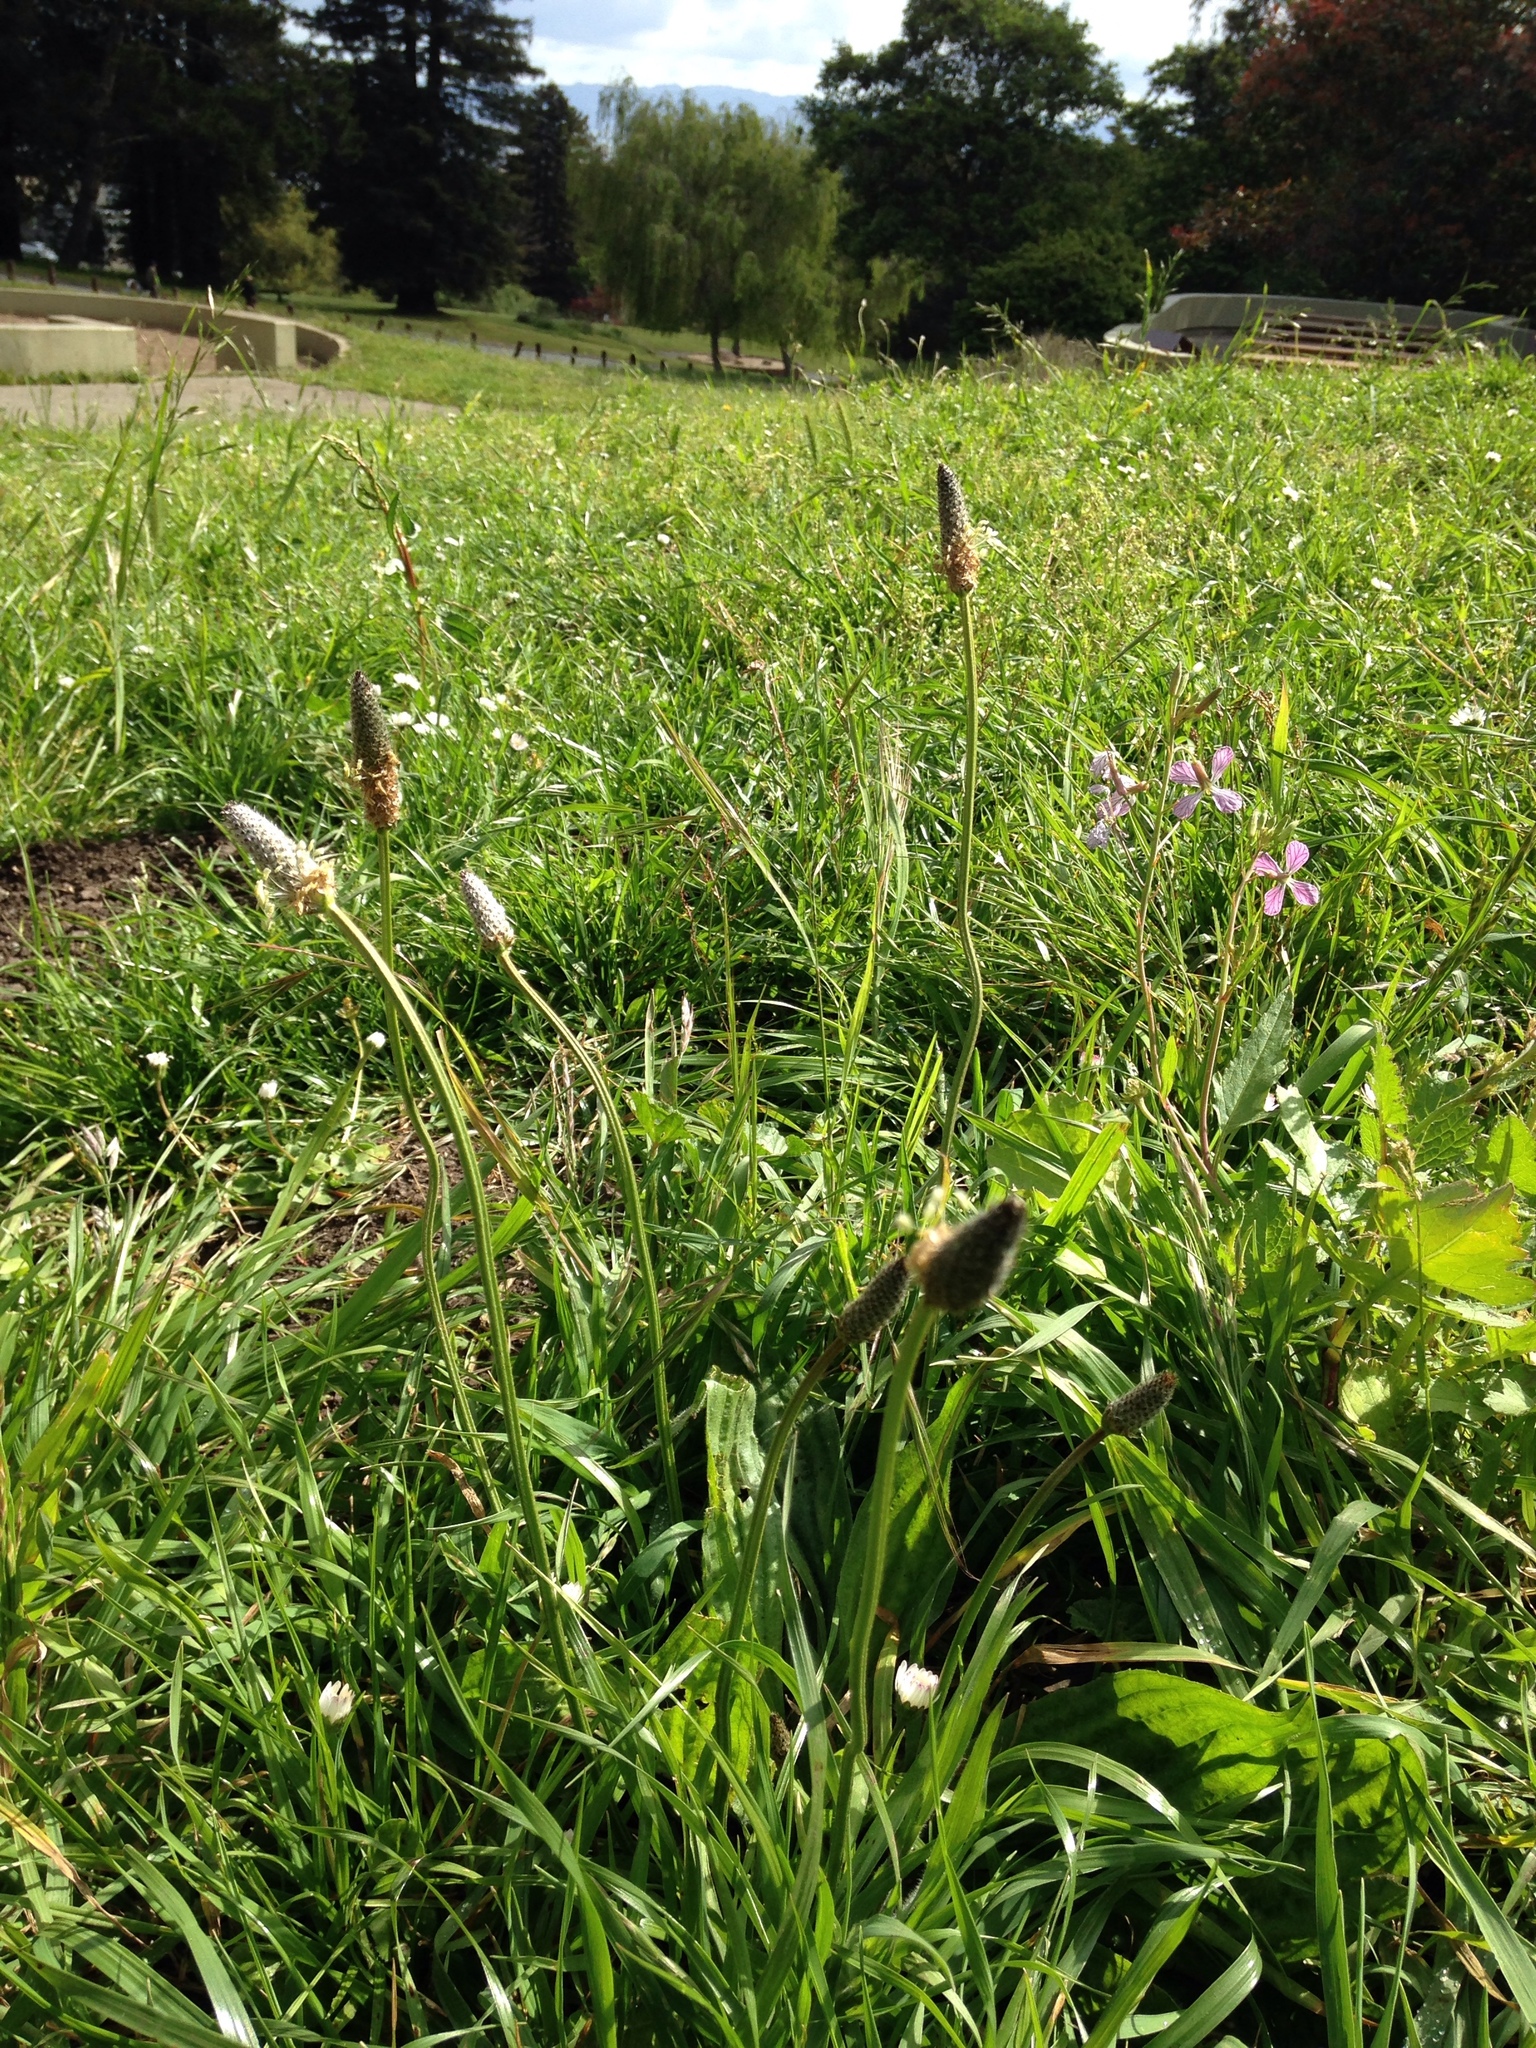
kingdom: Plantae
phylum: Tracheophyta
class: Magnoliopsida
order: Lamiales
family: Plantaginaceae
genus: Plantago
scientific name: Plantago lanceolata
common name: Ribwort plantain
